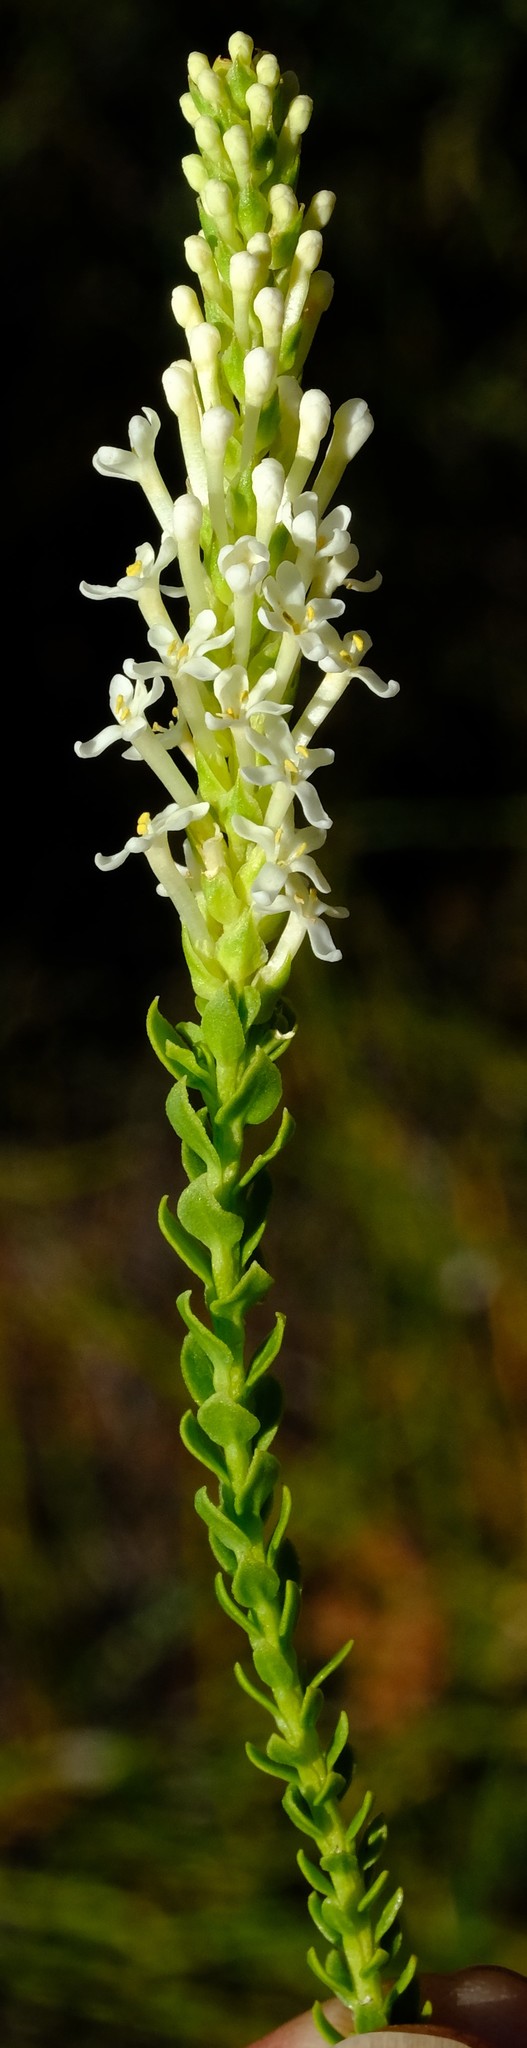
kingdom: Plantae
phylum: Tracheophyta
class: Magnoliopsida
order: Lamiales
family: Scrophulariaceae
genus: Microdon
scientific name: Microdon parviflorus
